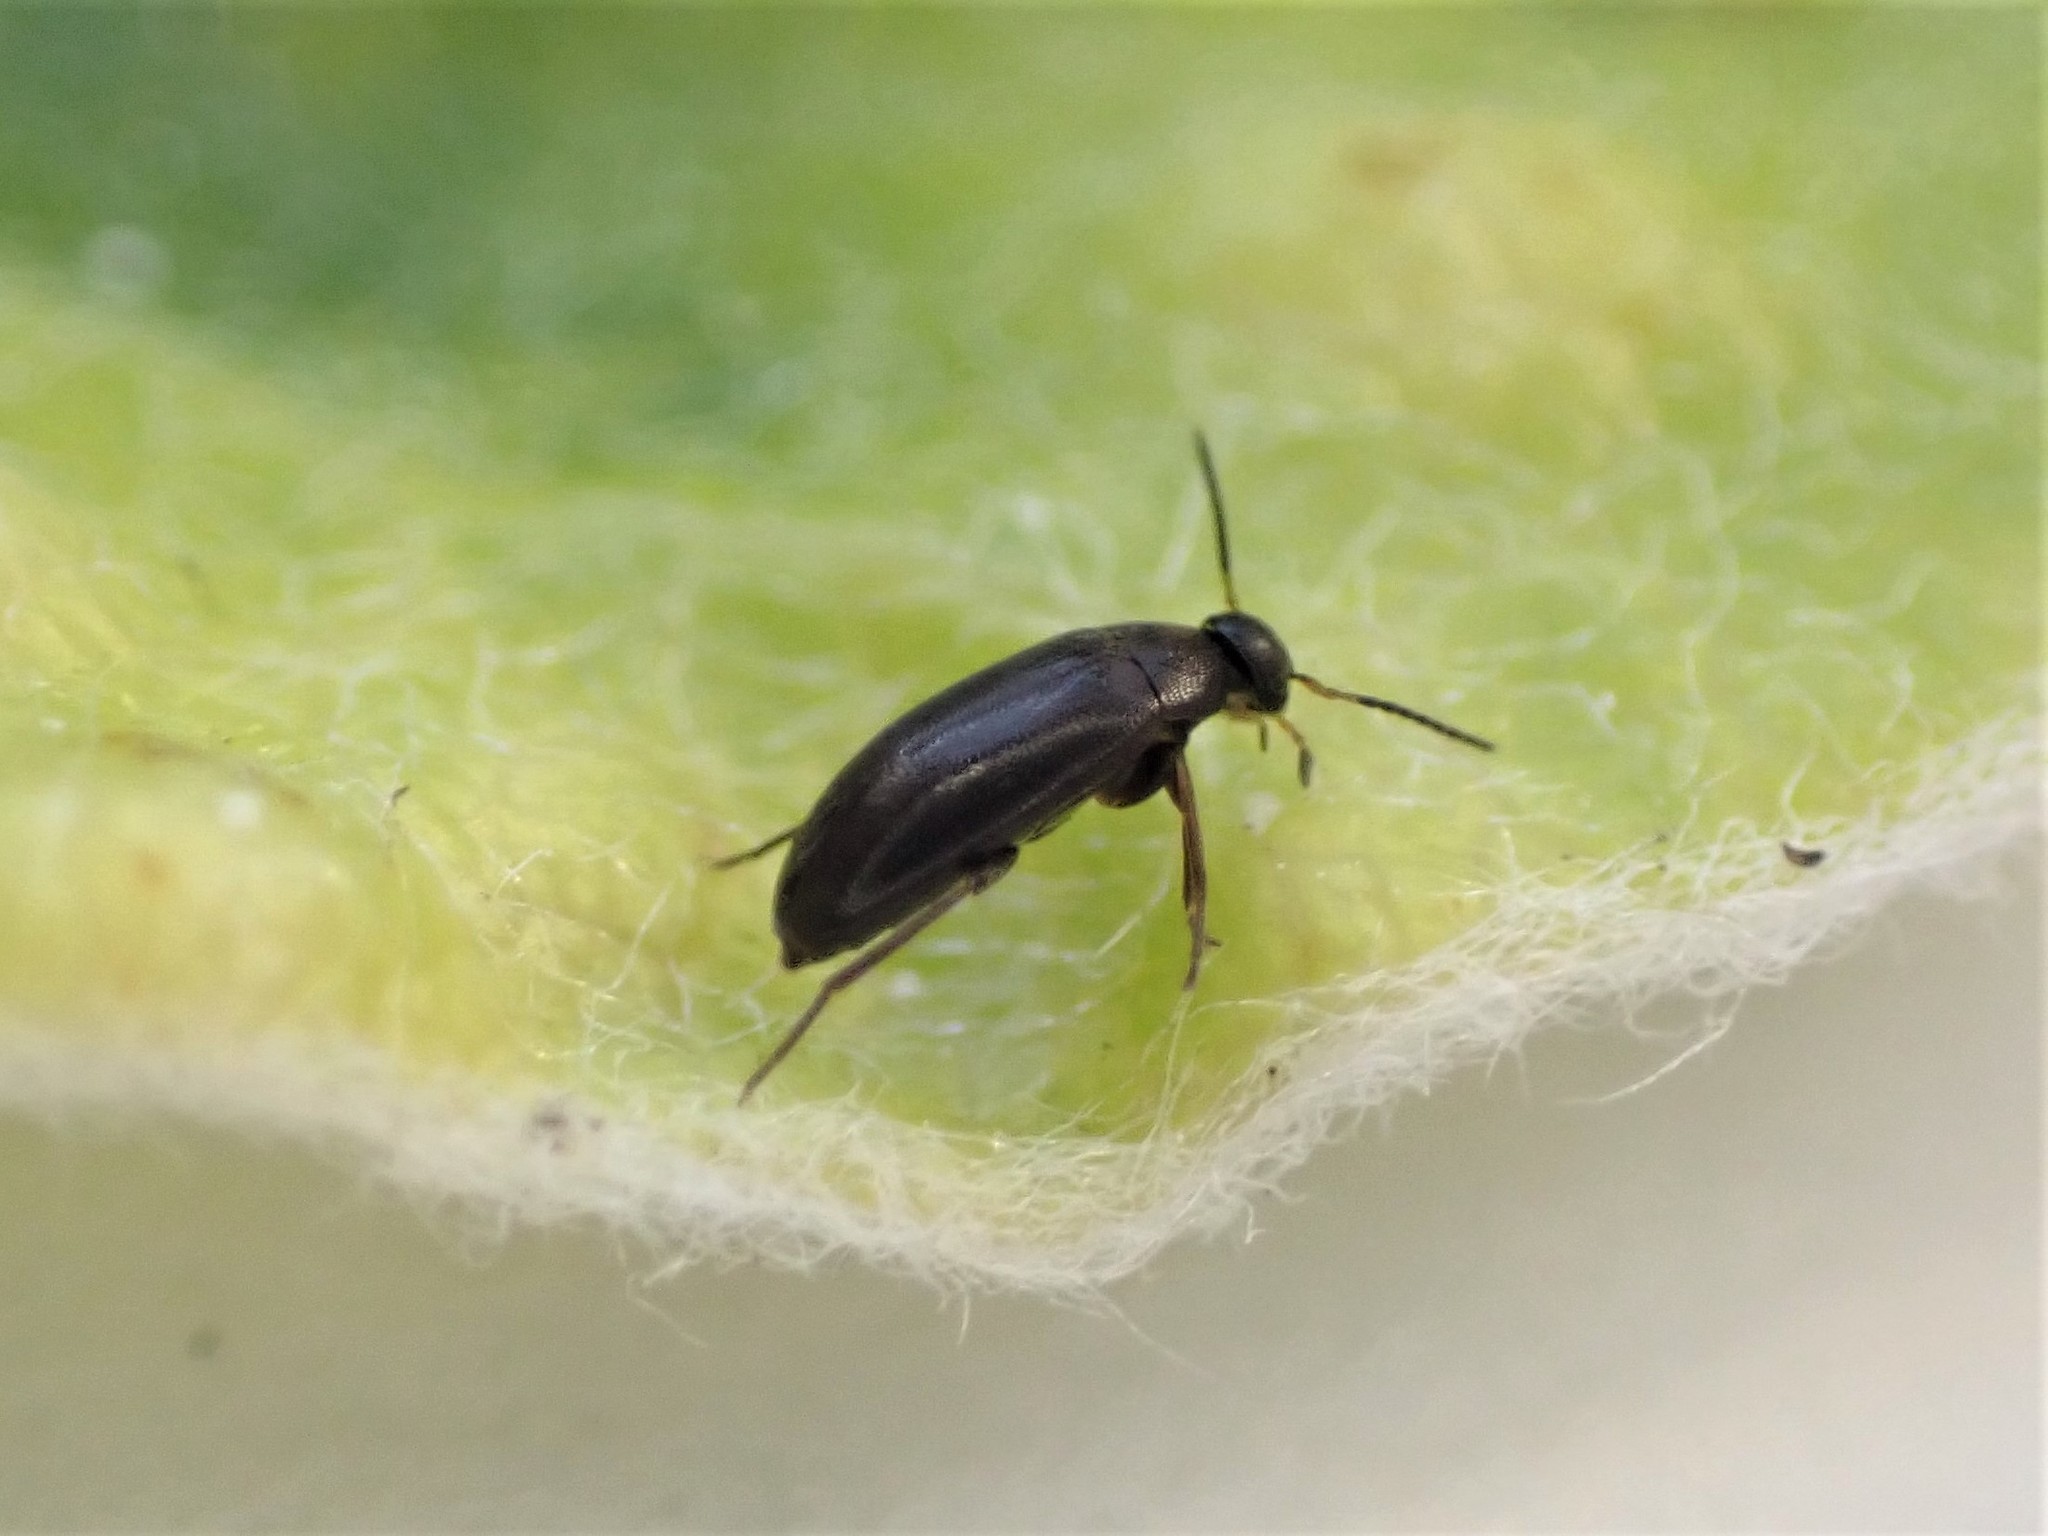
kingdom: Animalia
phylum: Arthropoda
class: Insecta
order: Coleoptera
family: Scraptiidae
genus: Nothotelus
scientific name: Nothotelus
